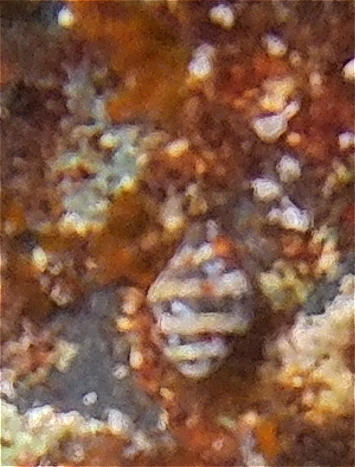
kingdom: Animalia
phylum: Mollusca
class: Gastropoda
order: Neogastropoda
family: Pisaniidae
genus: Engina
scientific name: Engina mendicaria
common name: Bumble bee snail
